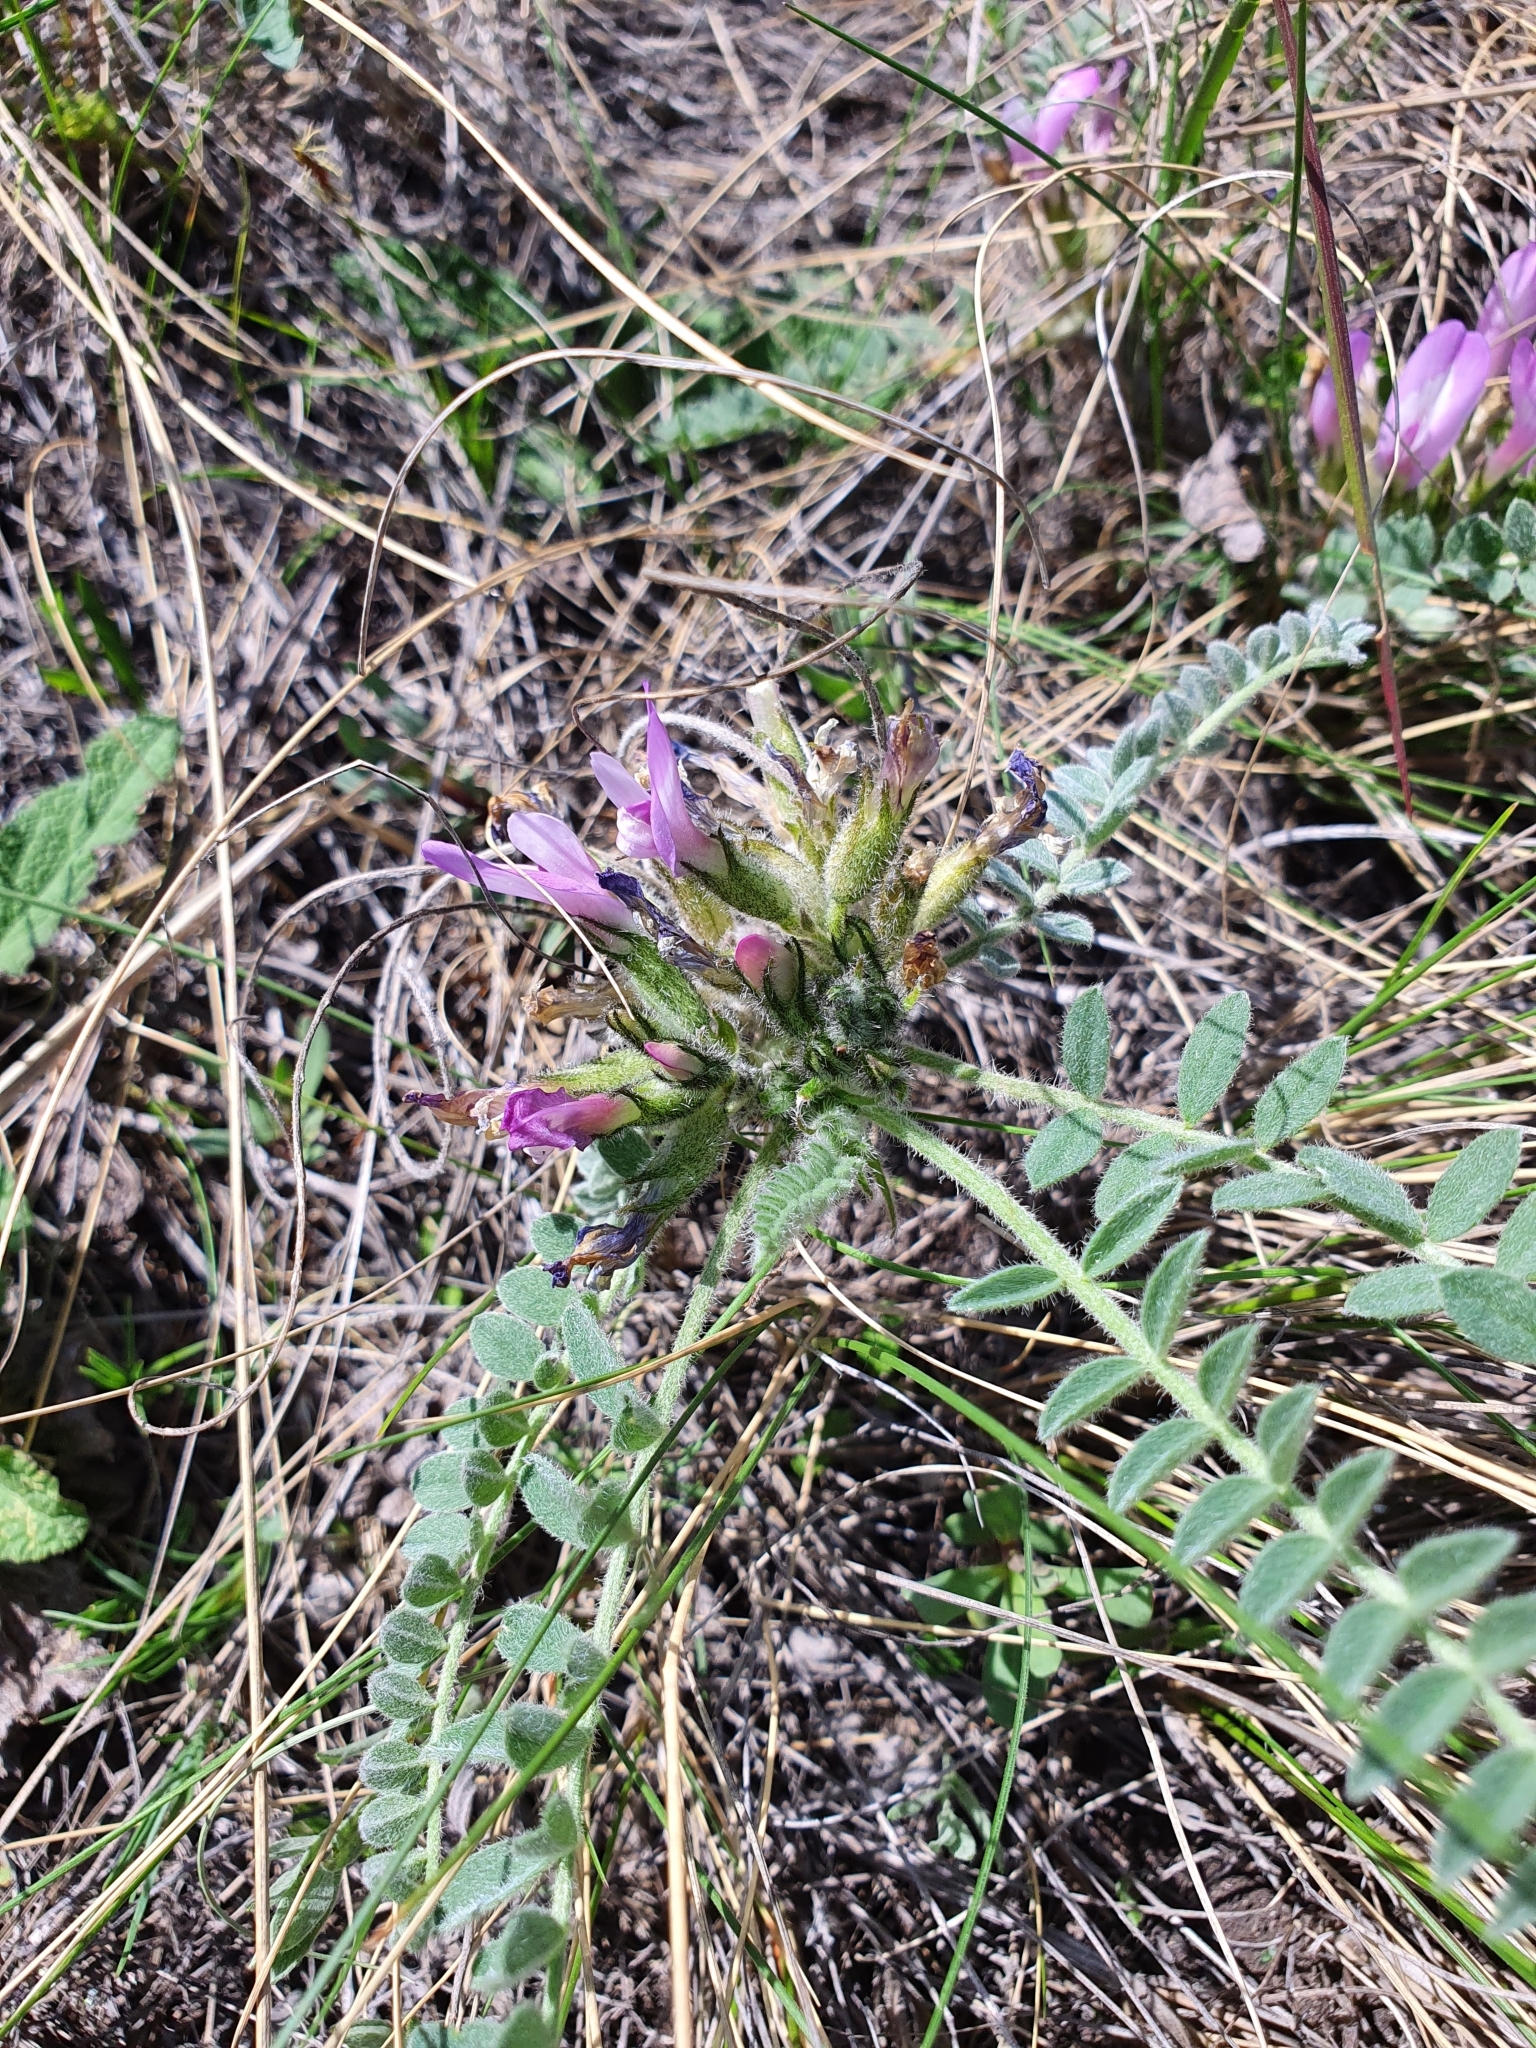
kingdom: Plantae
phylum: Tracheophyta
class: Magnoliopsida
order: Fabales
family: Fabaceae
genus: Astragalus
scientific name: Astragalus testiculatus
